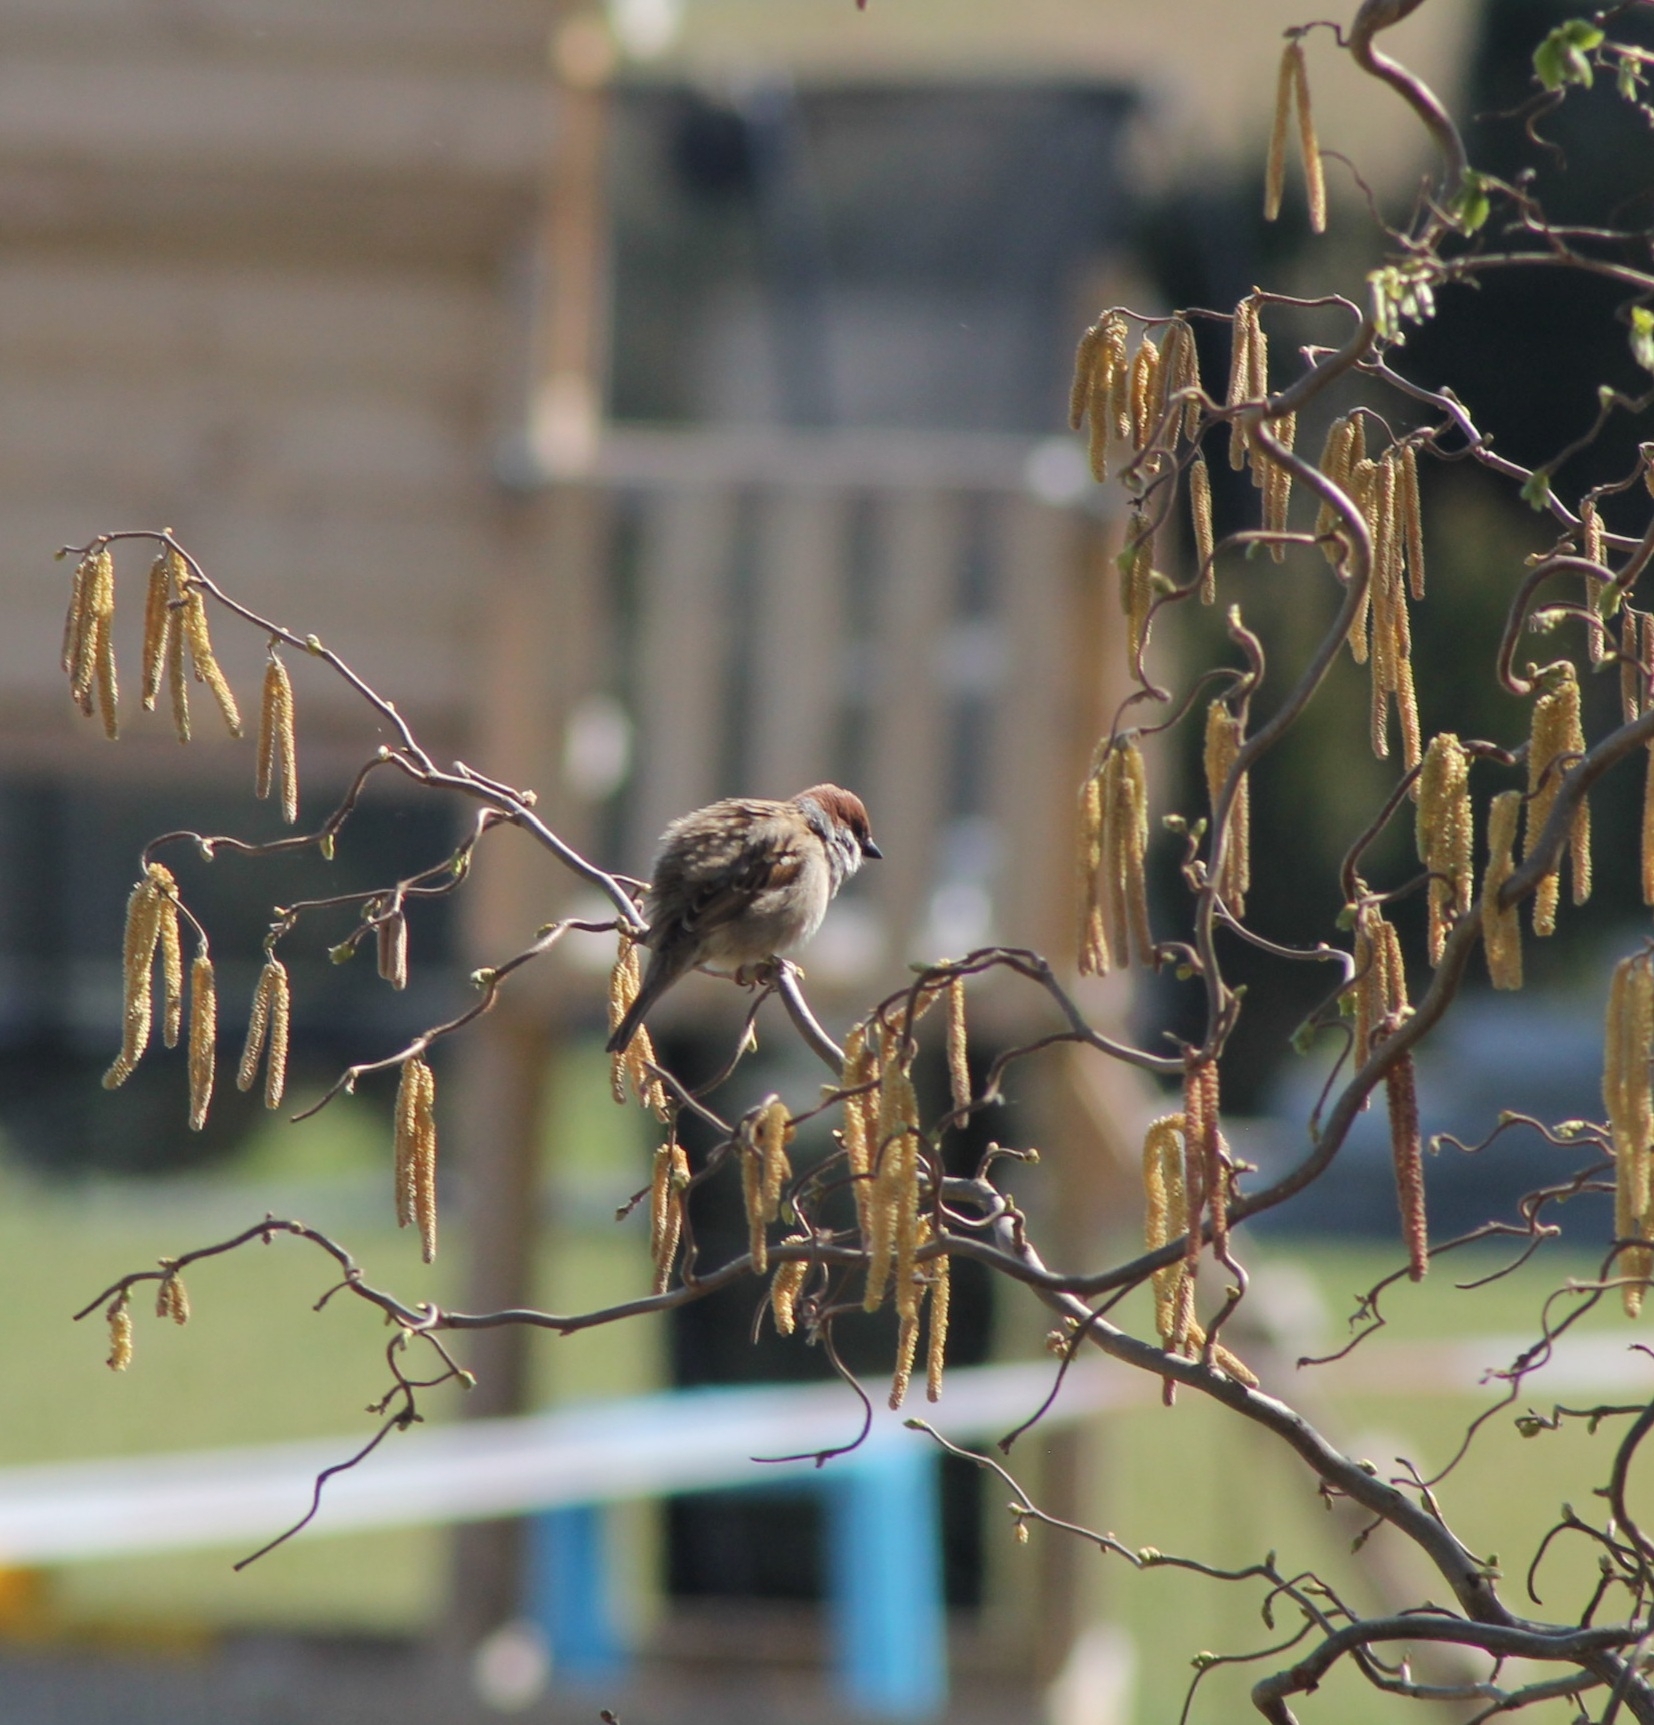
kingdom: Animalia
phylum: Chordata
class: Aves
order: Passeriformes
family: Passeridae
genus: Passer
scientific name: Passer montanus
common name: Eurasian tree sparrow
